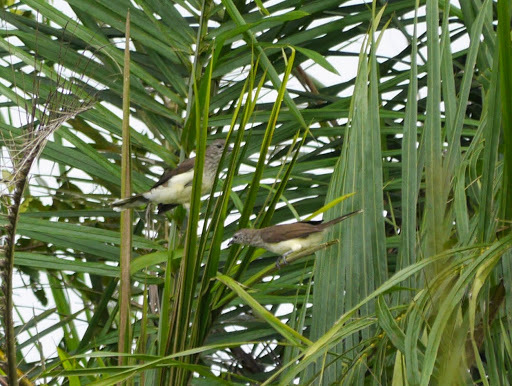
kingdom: Animalia
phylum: Chordata
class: Aves
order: Passeriformes
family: Pycnonotidae
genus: Thescelocichla
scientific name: Thescelocichla leucopleura
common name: Swamp palm bulbul
